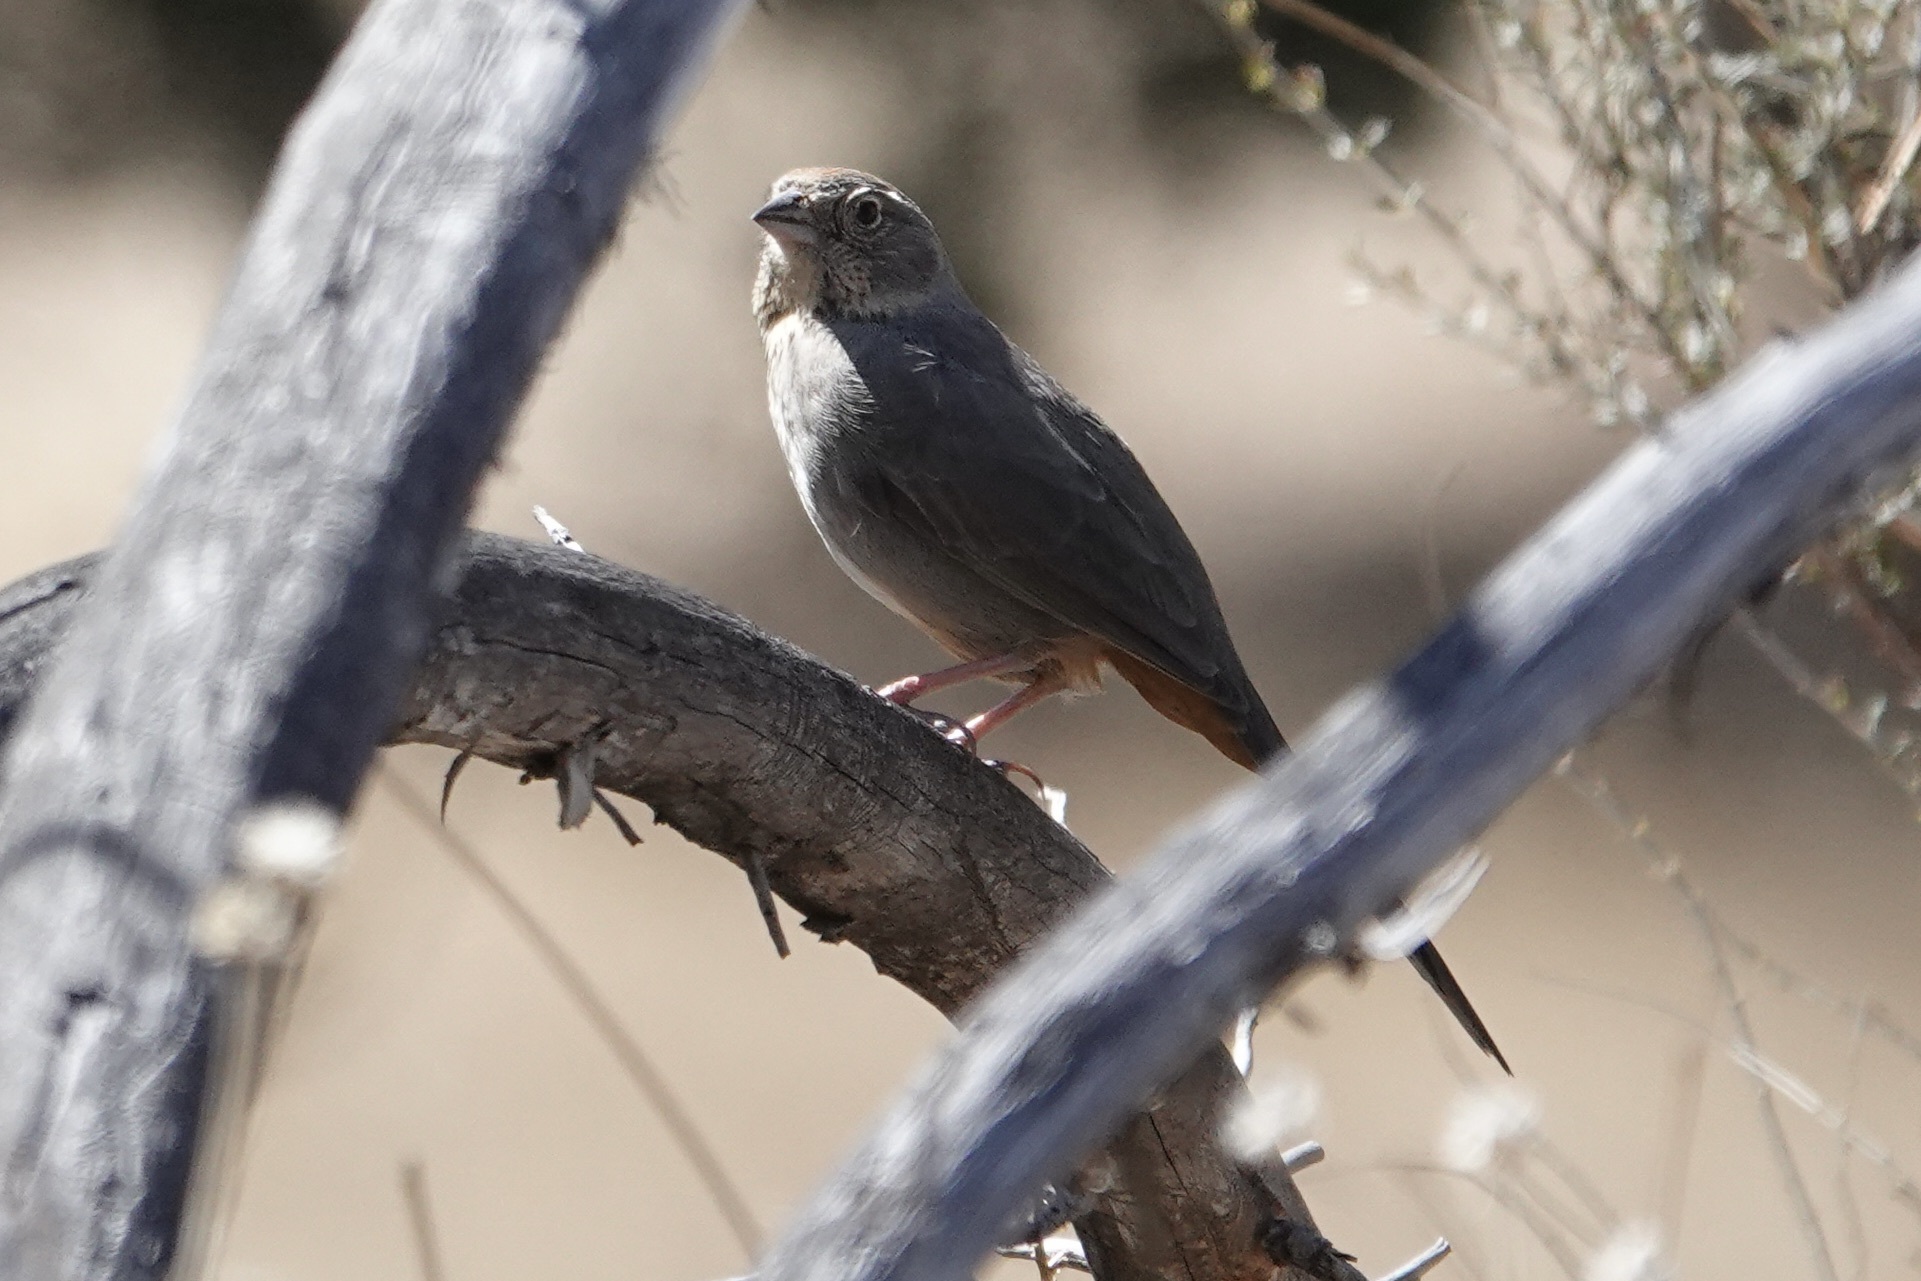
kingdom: Animalia
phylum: Chordata
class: Aves
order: Passeriformes
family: Passerellidae
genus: Melozone
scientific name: Melozone fusca
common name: Canyon towhee
